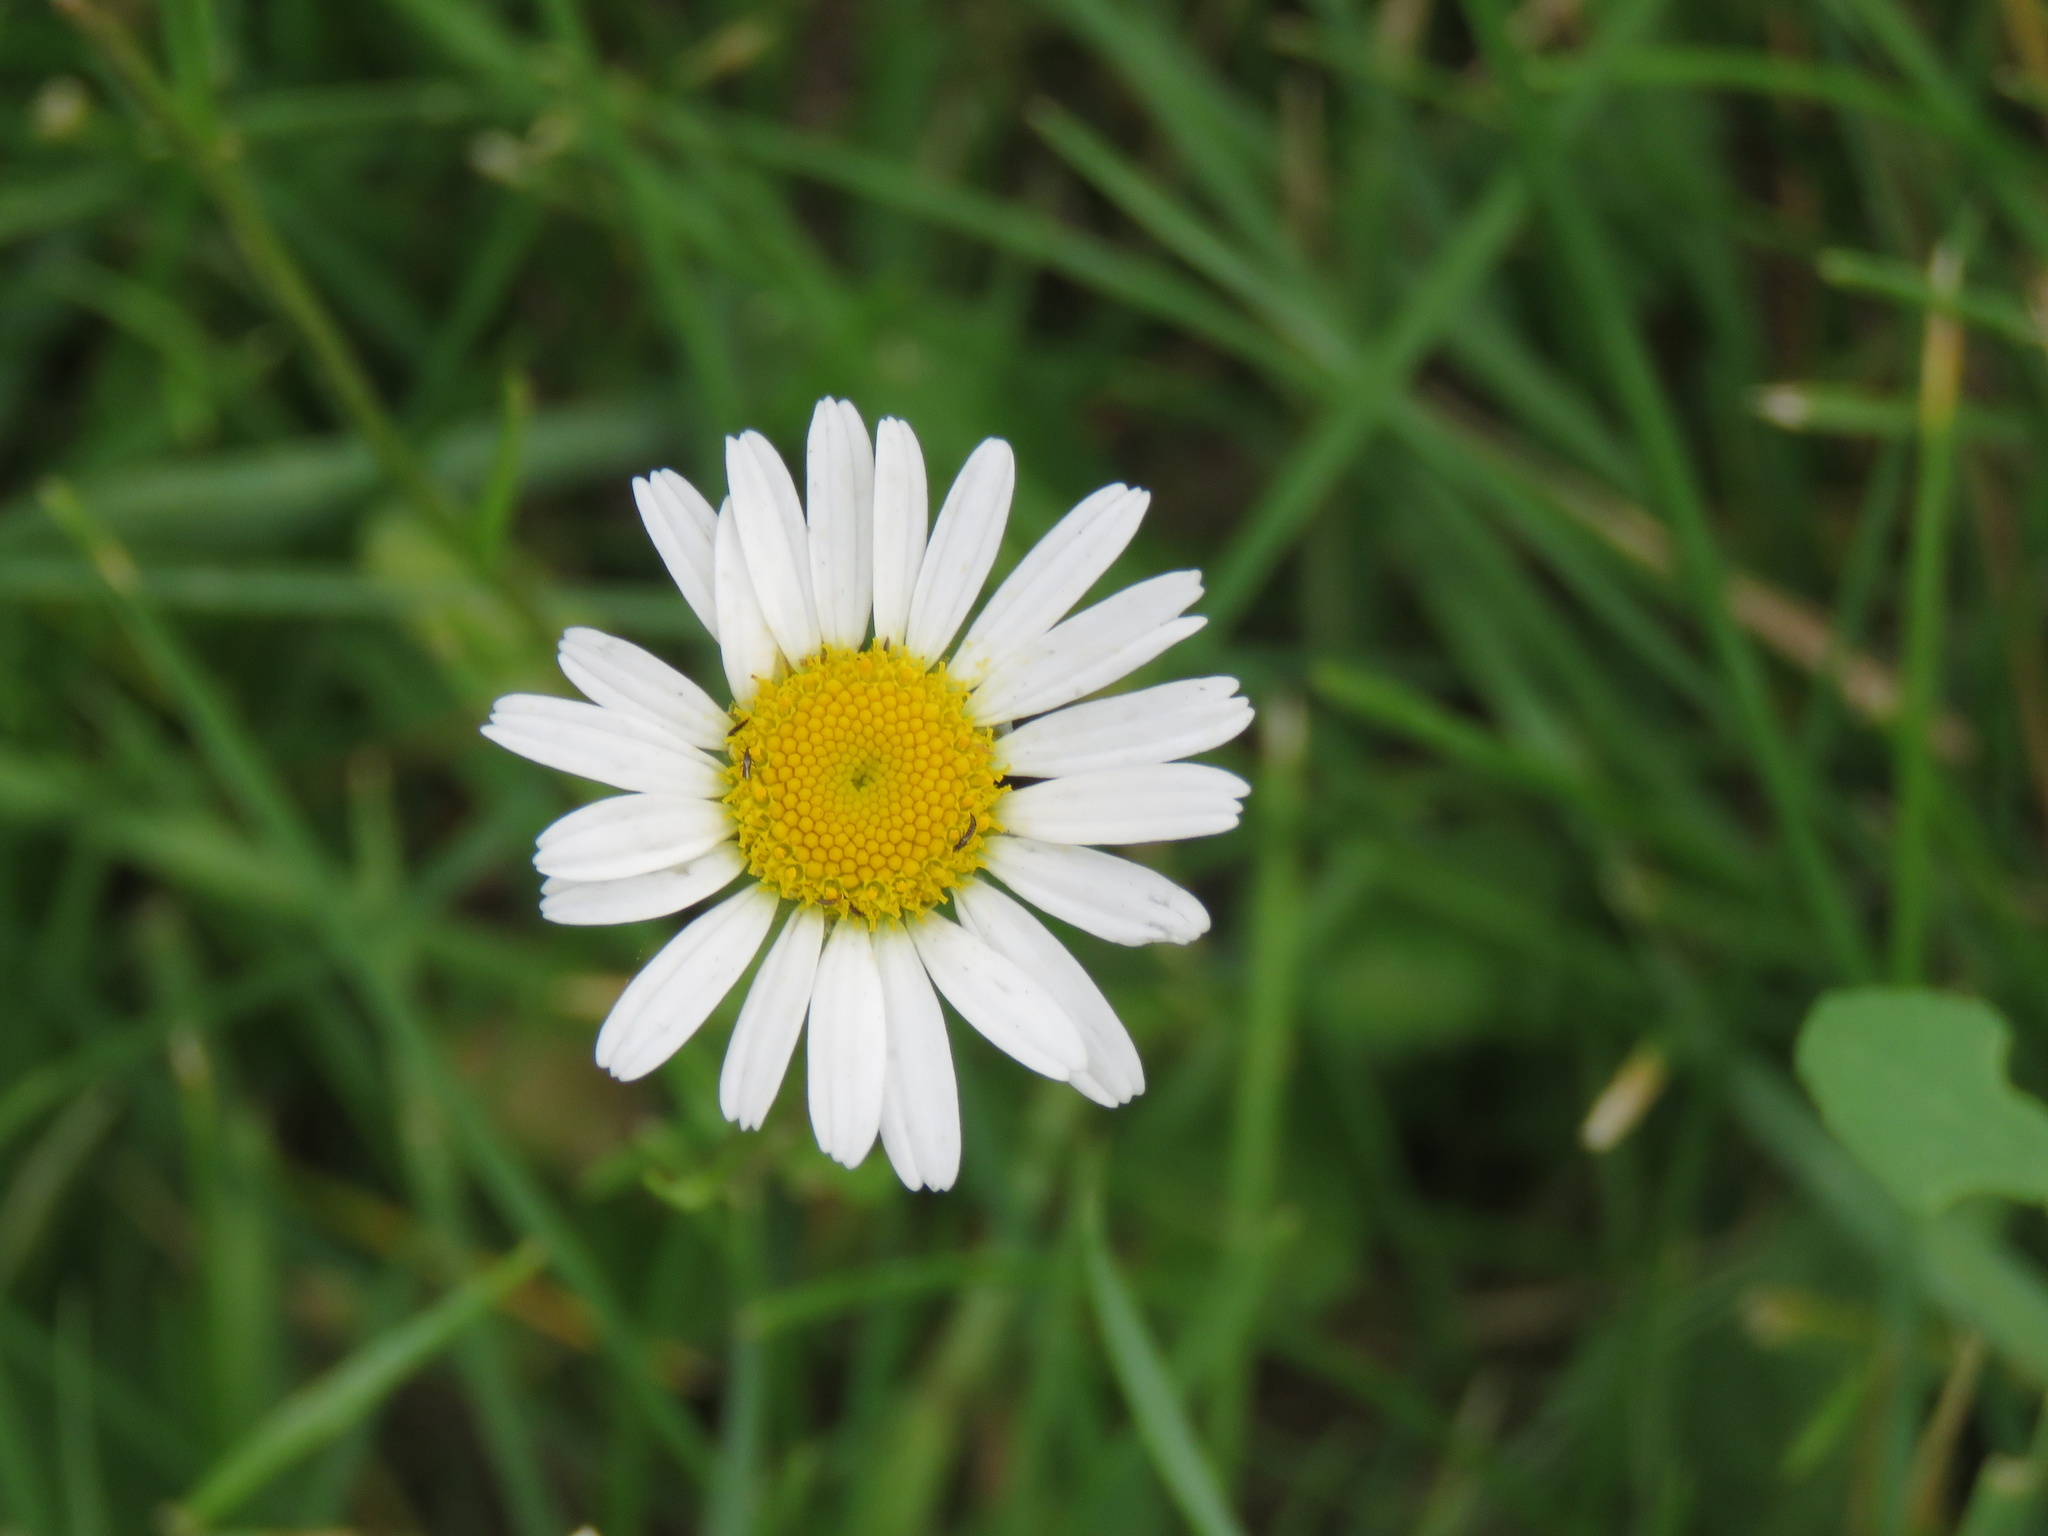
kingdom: Plantae
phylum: Tracheophyta
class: Magnoliopsida
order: Asterales
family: Asteraceae
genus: Leucanthemum
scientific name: Leucanthemum vulgare
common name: Oxeye daisy
